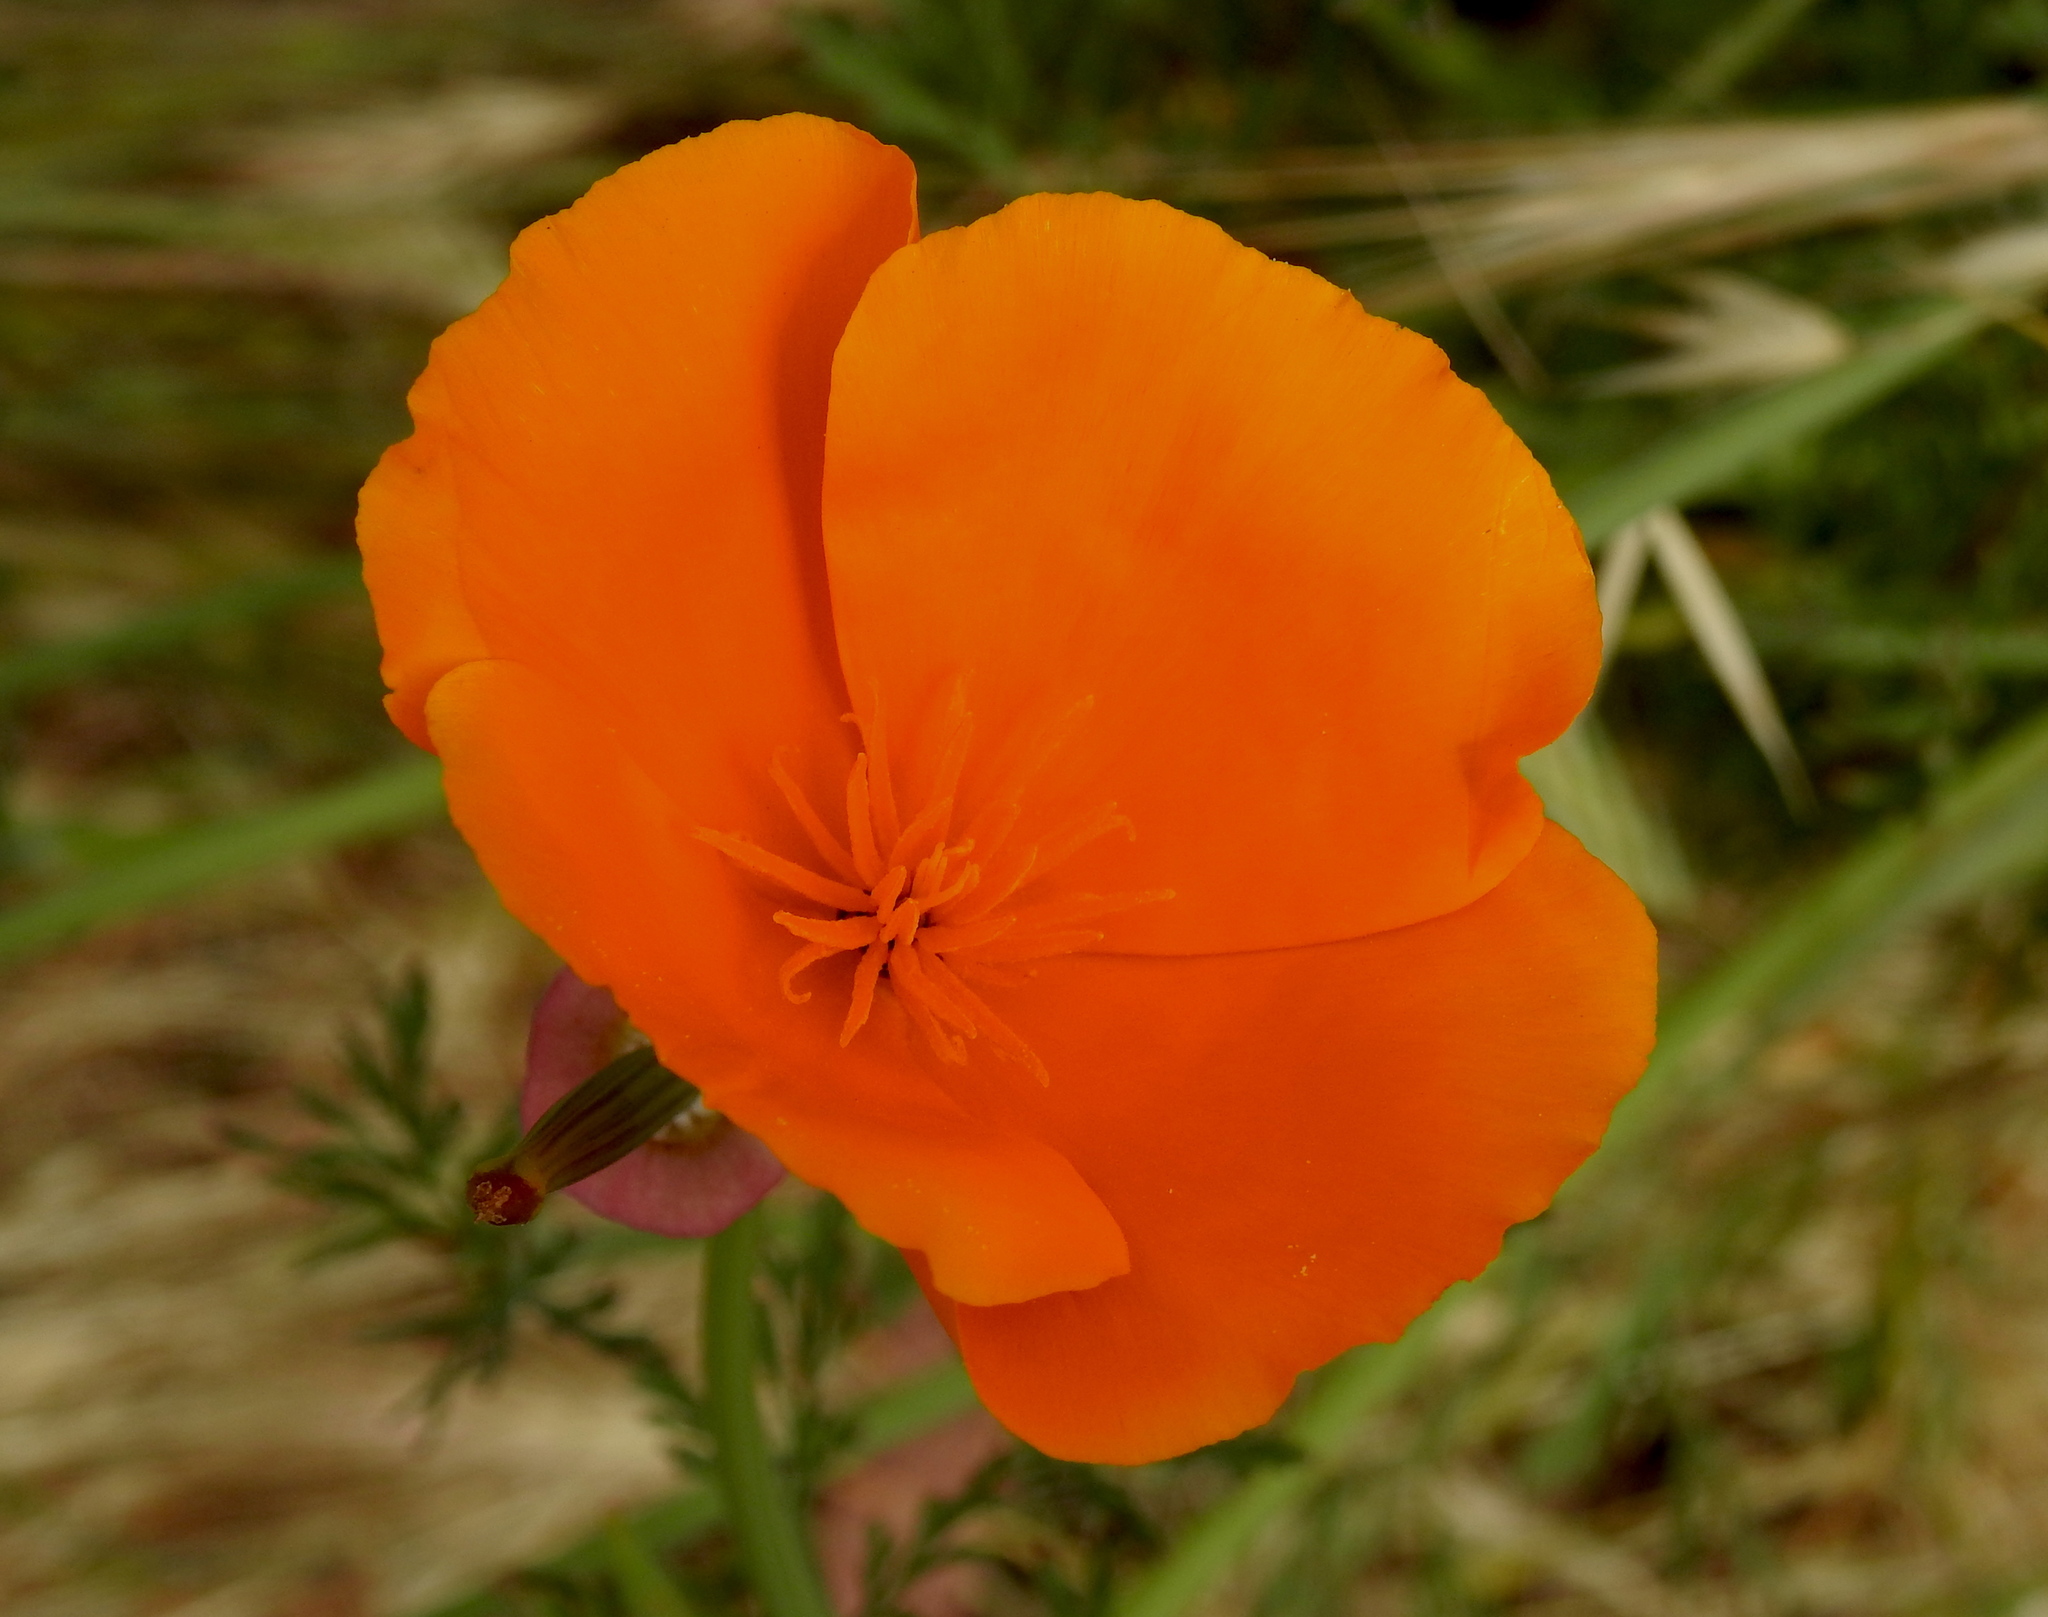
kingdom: Plantae
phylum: Tracheophyta
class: Magnoliopsida
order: Ranunculales
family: Papaveraceae
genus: Eschscholzia
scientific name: Eschscholzia californica
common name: California poppy
